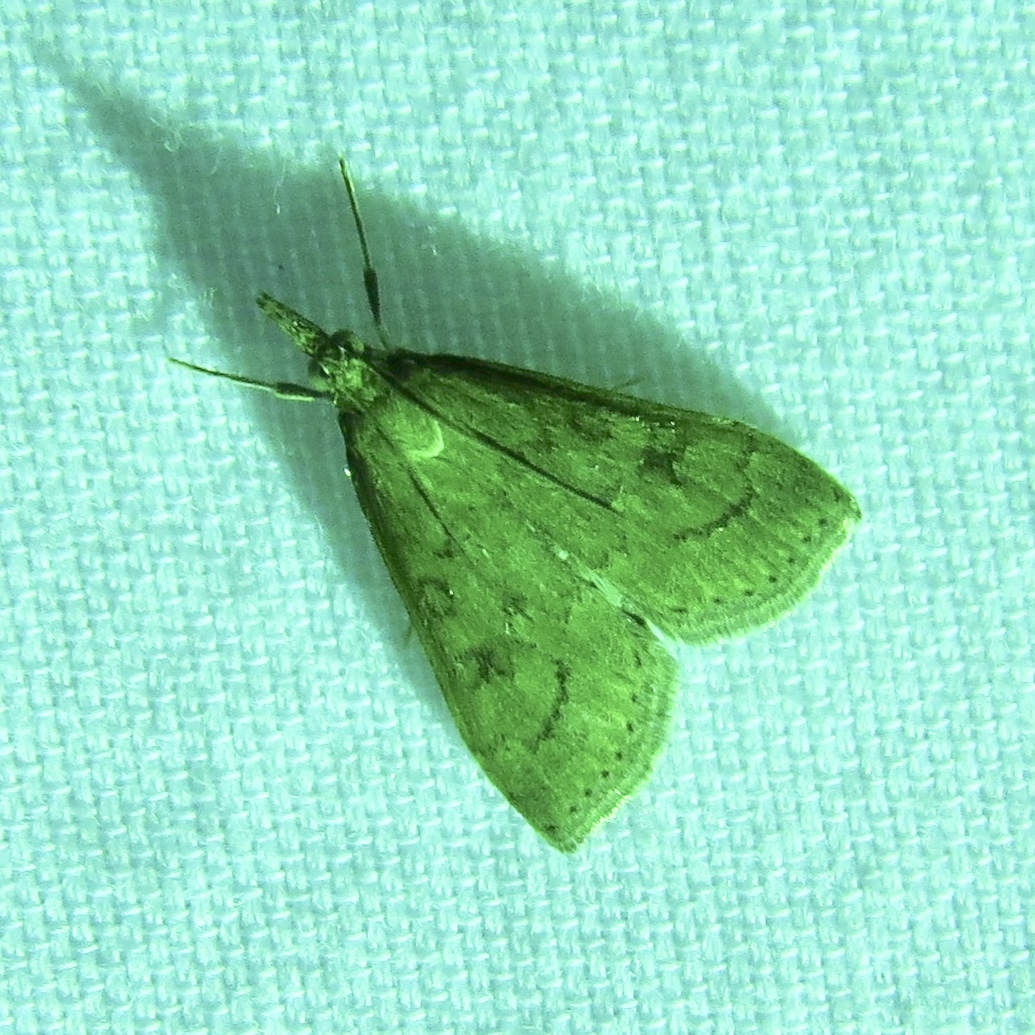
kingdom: Animalia
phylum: Arthropoda
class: Insecta
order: Lepidoptera
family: Crambidae
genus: Udea
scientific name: Udea rubigalis
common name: Celery leaftier moth
